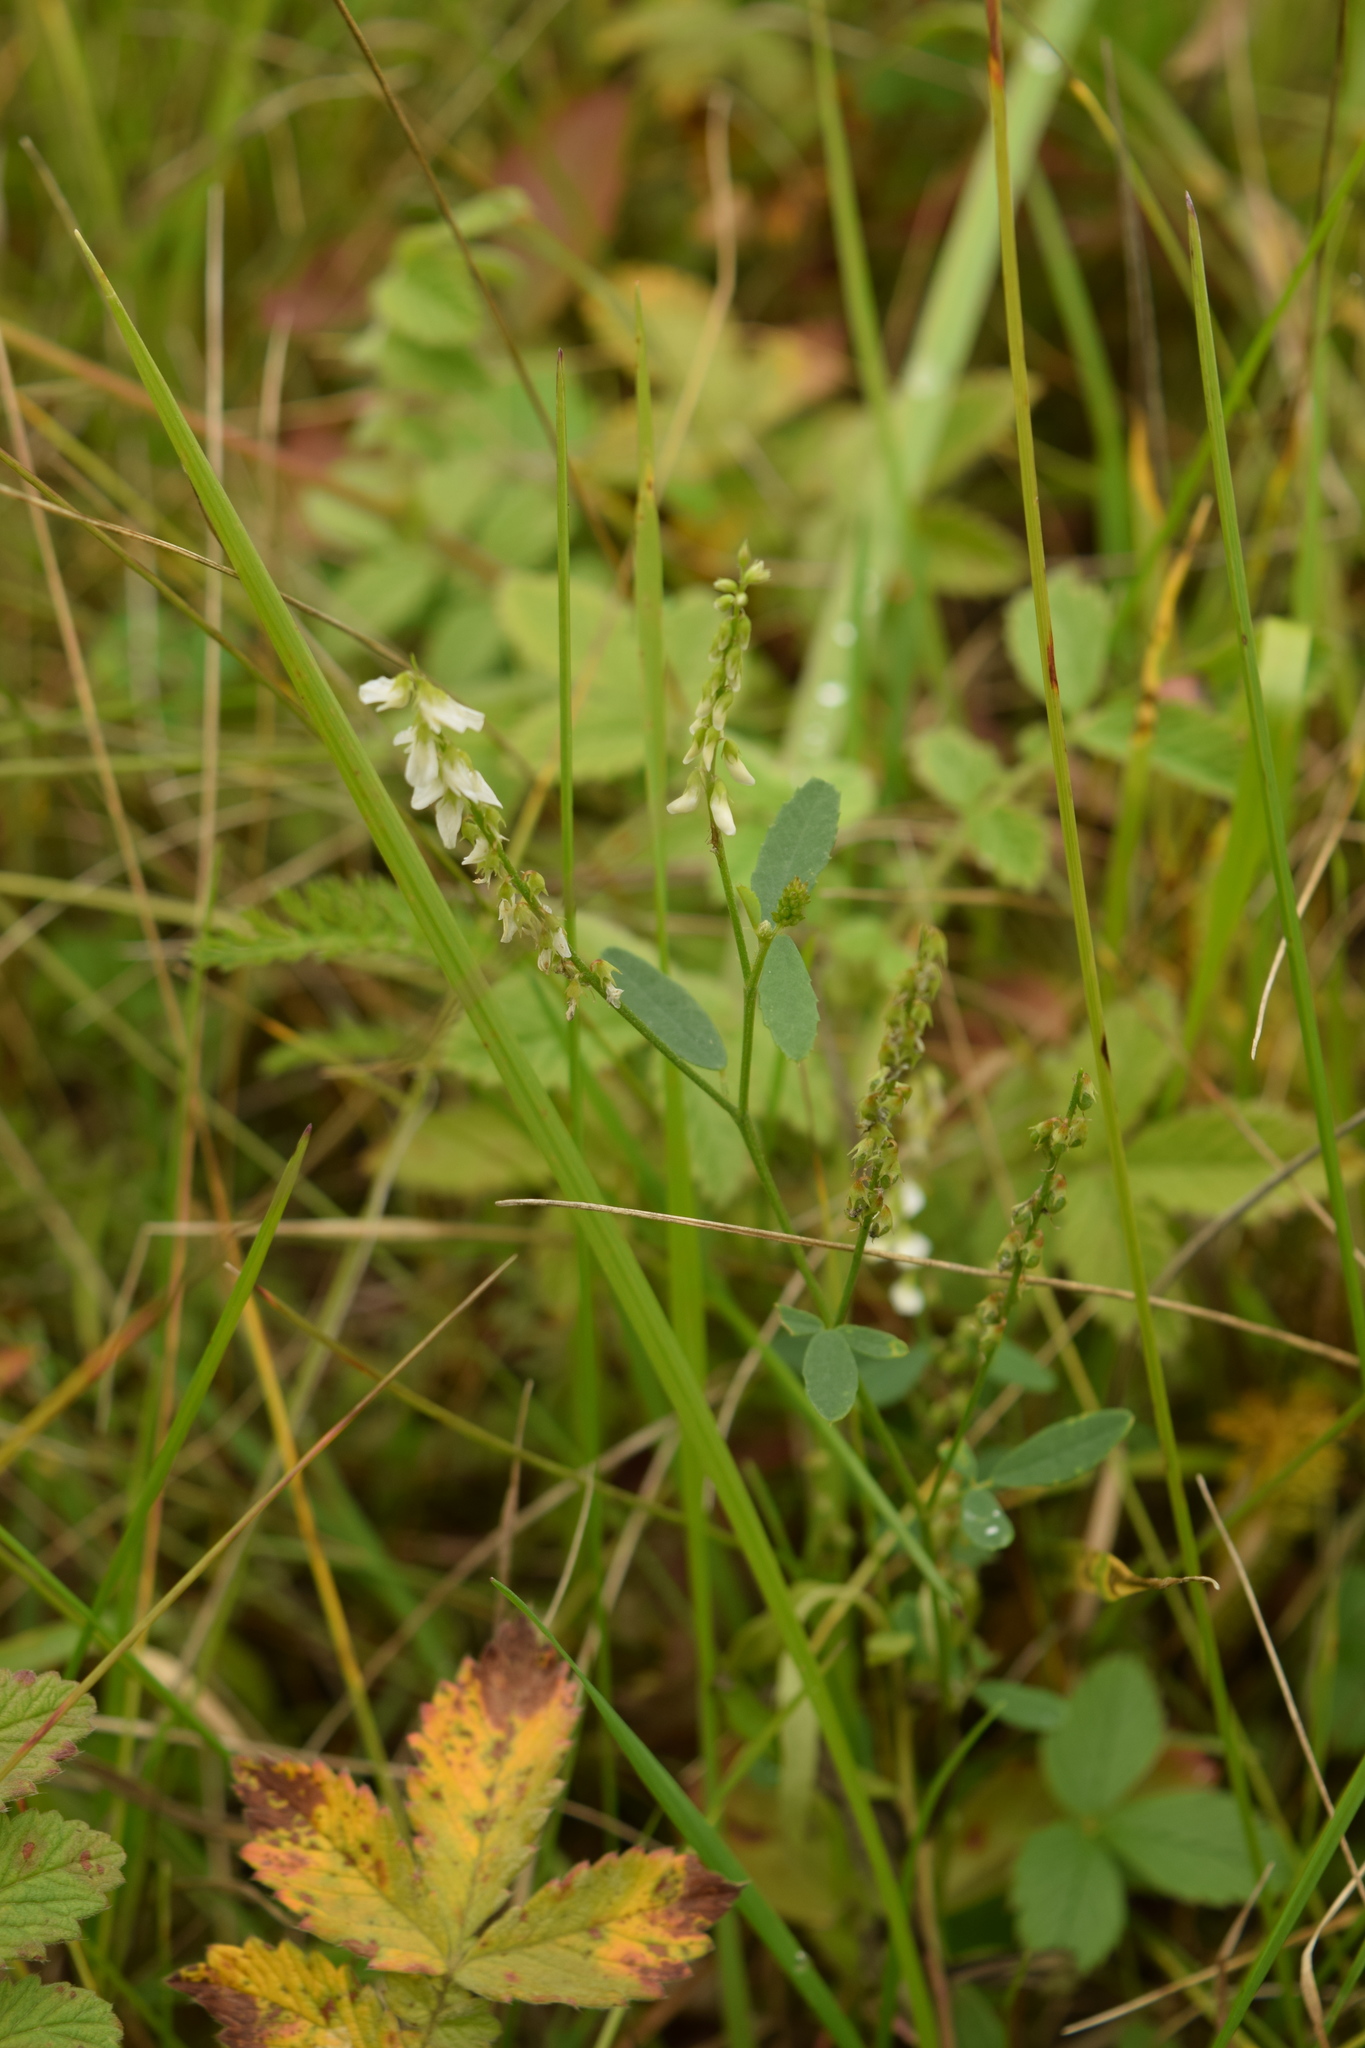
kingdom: Plantae
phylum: Tracheophyta
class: Magnoliopsida
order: Fabales
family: Fabaceae
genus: Melilotus
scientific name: Melilotus albus
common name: White melilot
